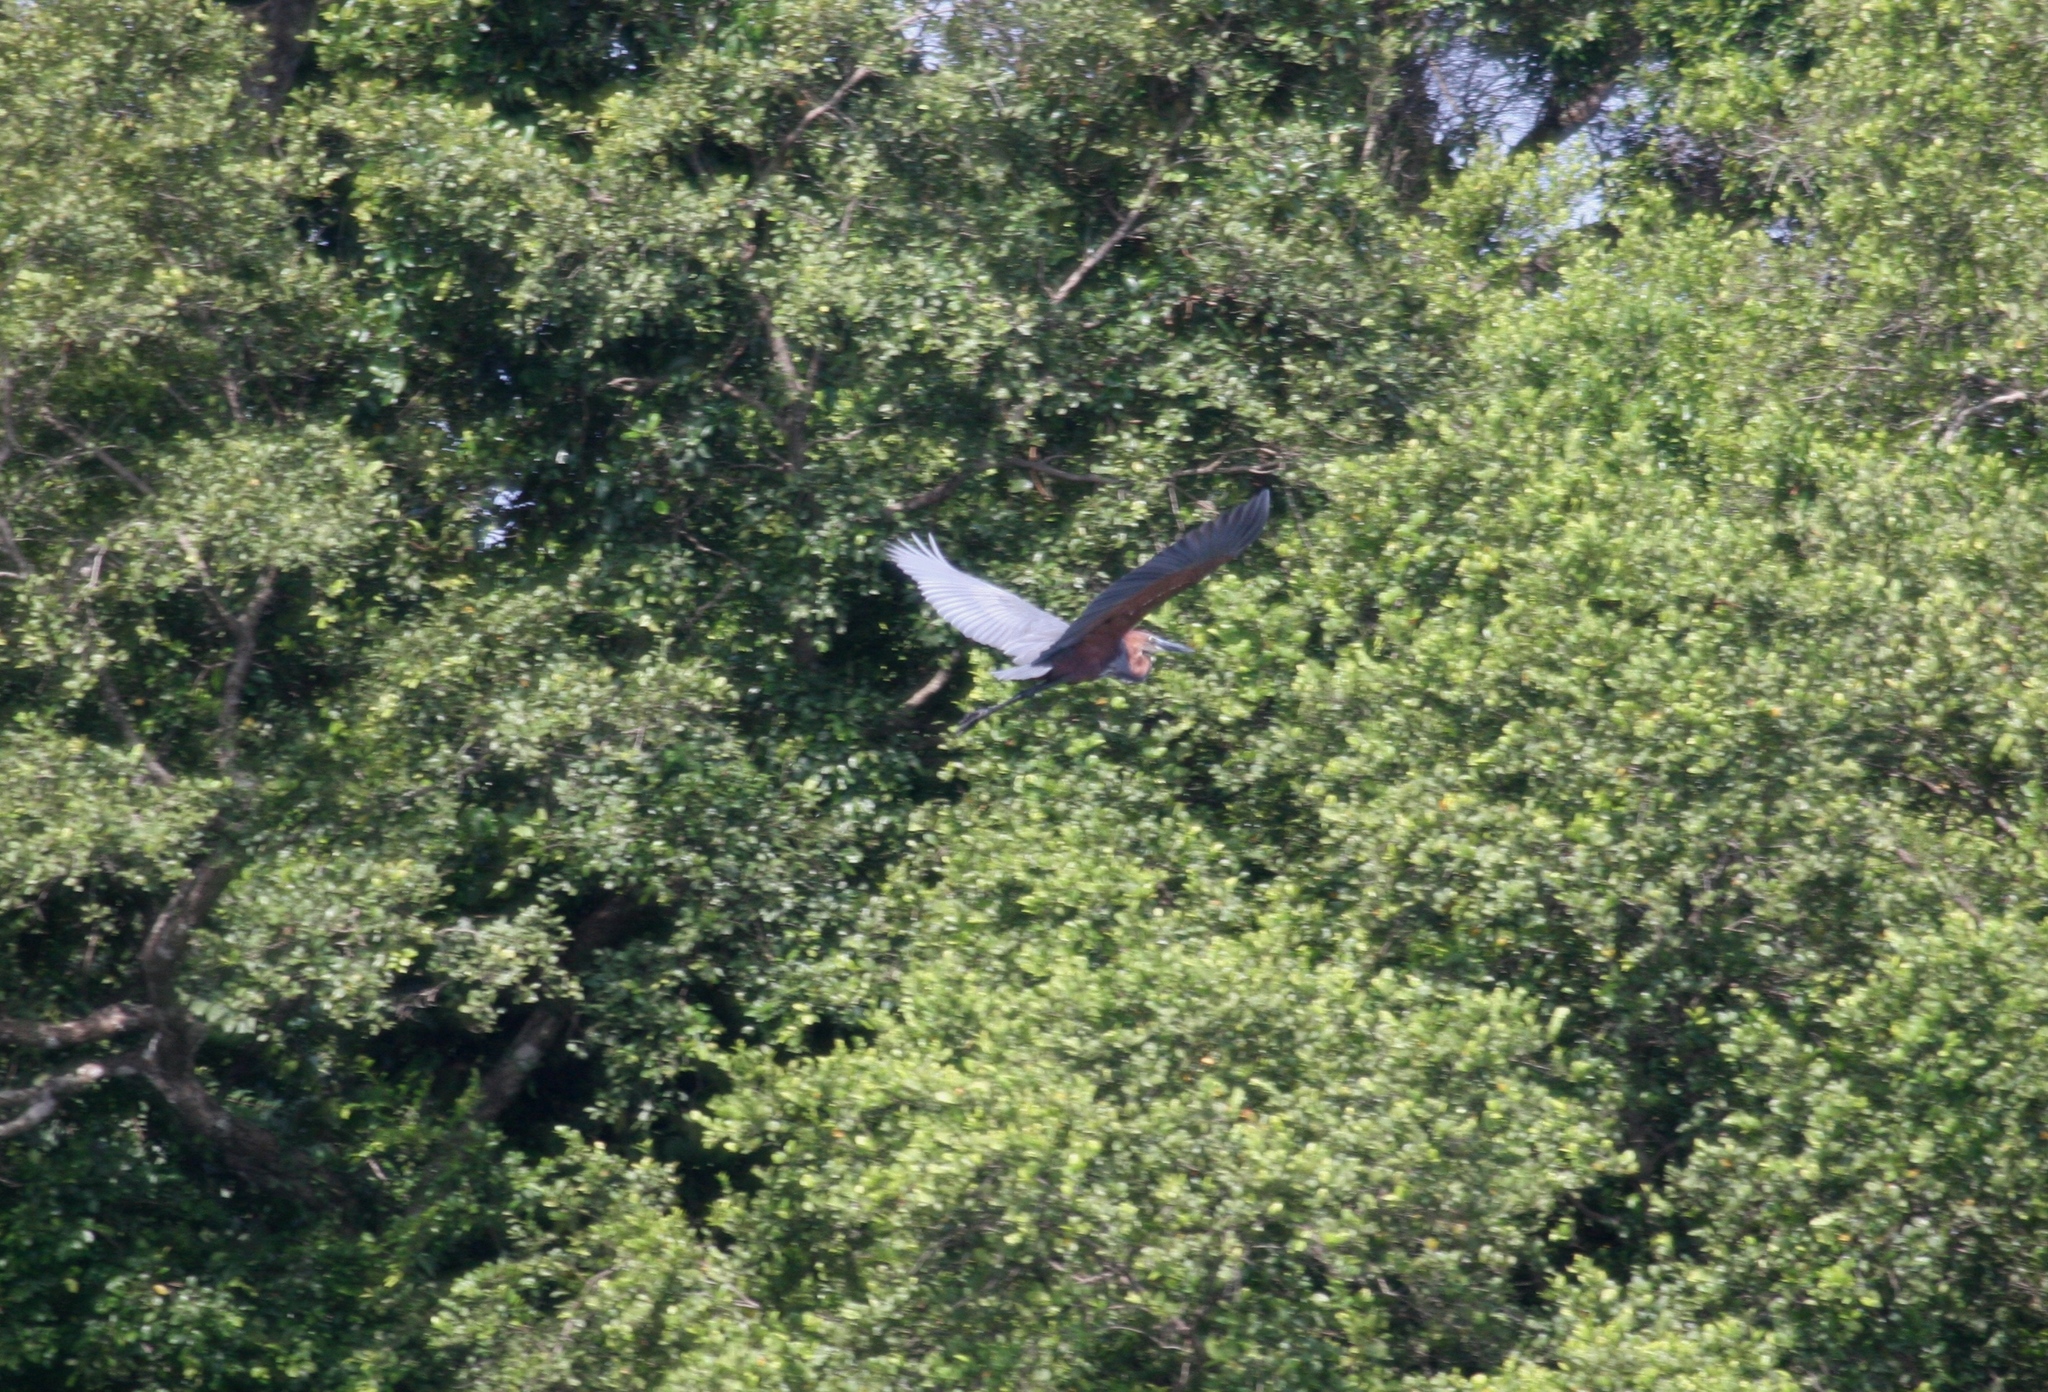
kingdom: Animalia
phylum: Chordata
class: Aves
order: Pelecaniformes
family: Ardeidae
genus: Ardea
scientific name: Ardea goliath
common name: Goliath heron
